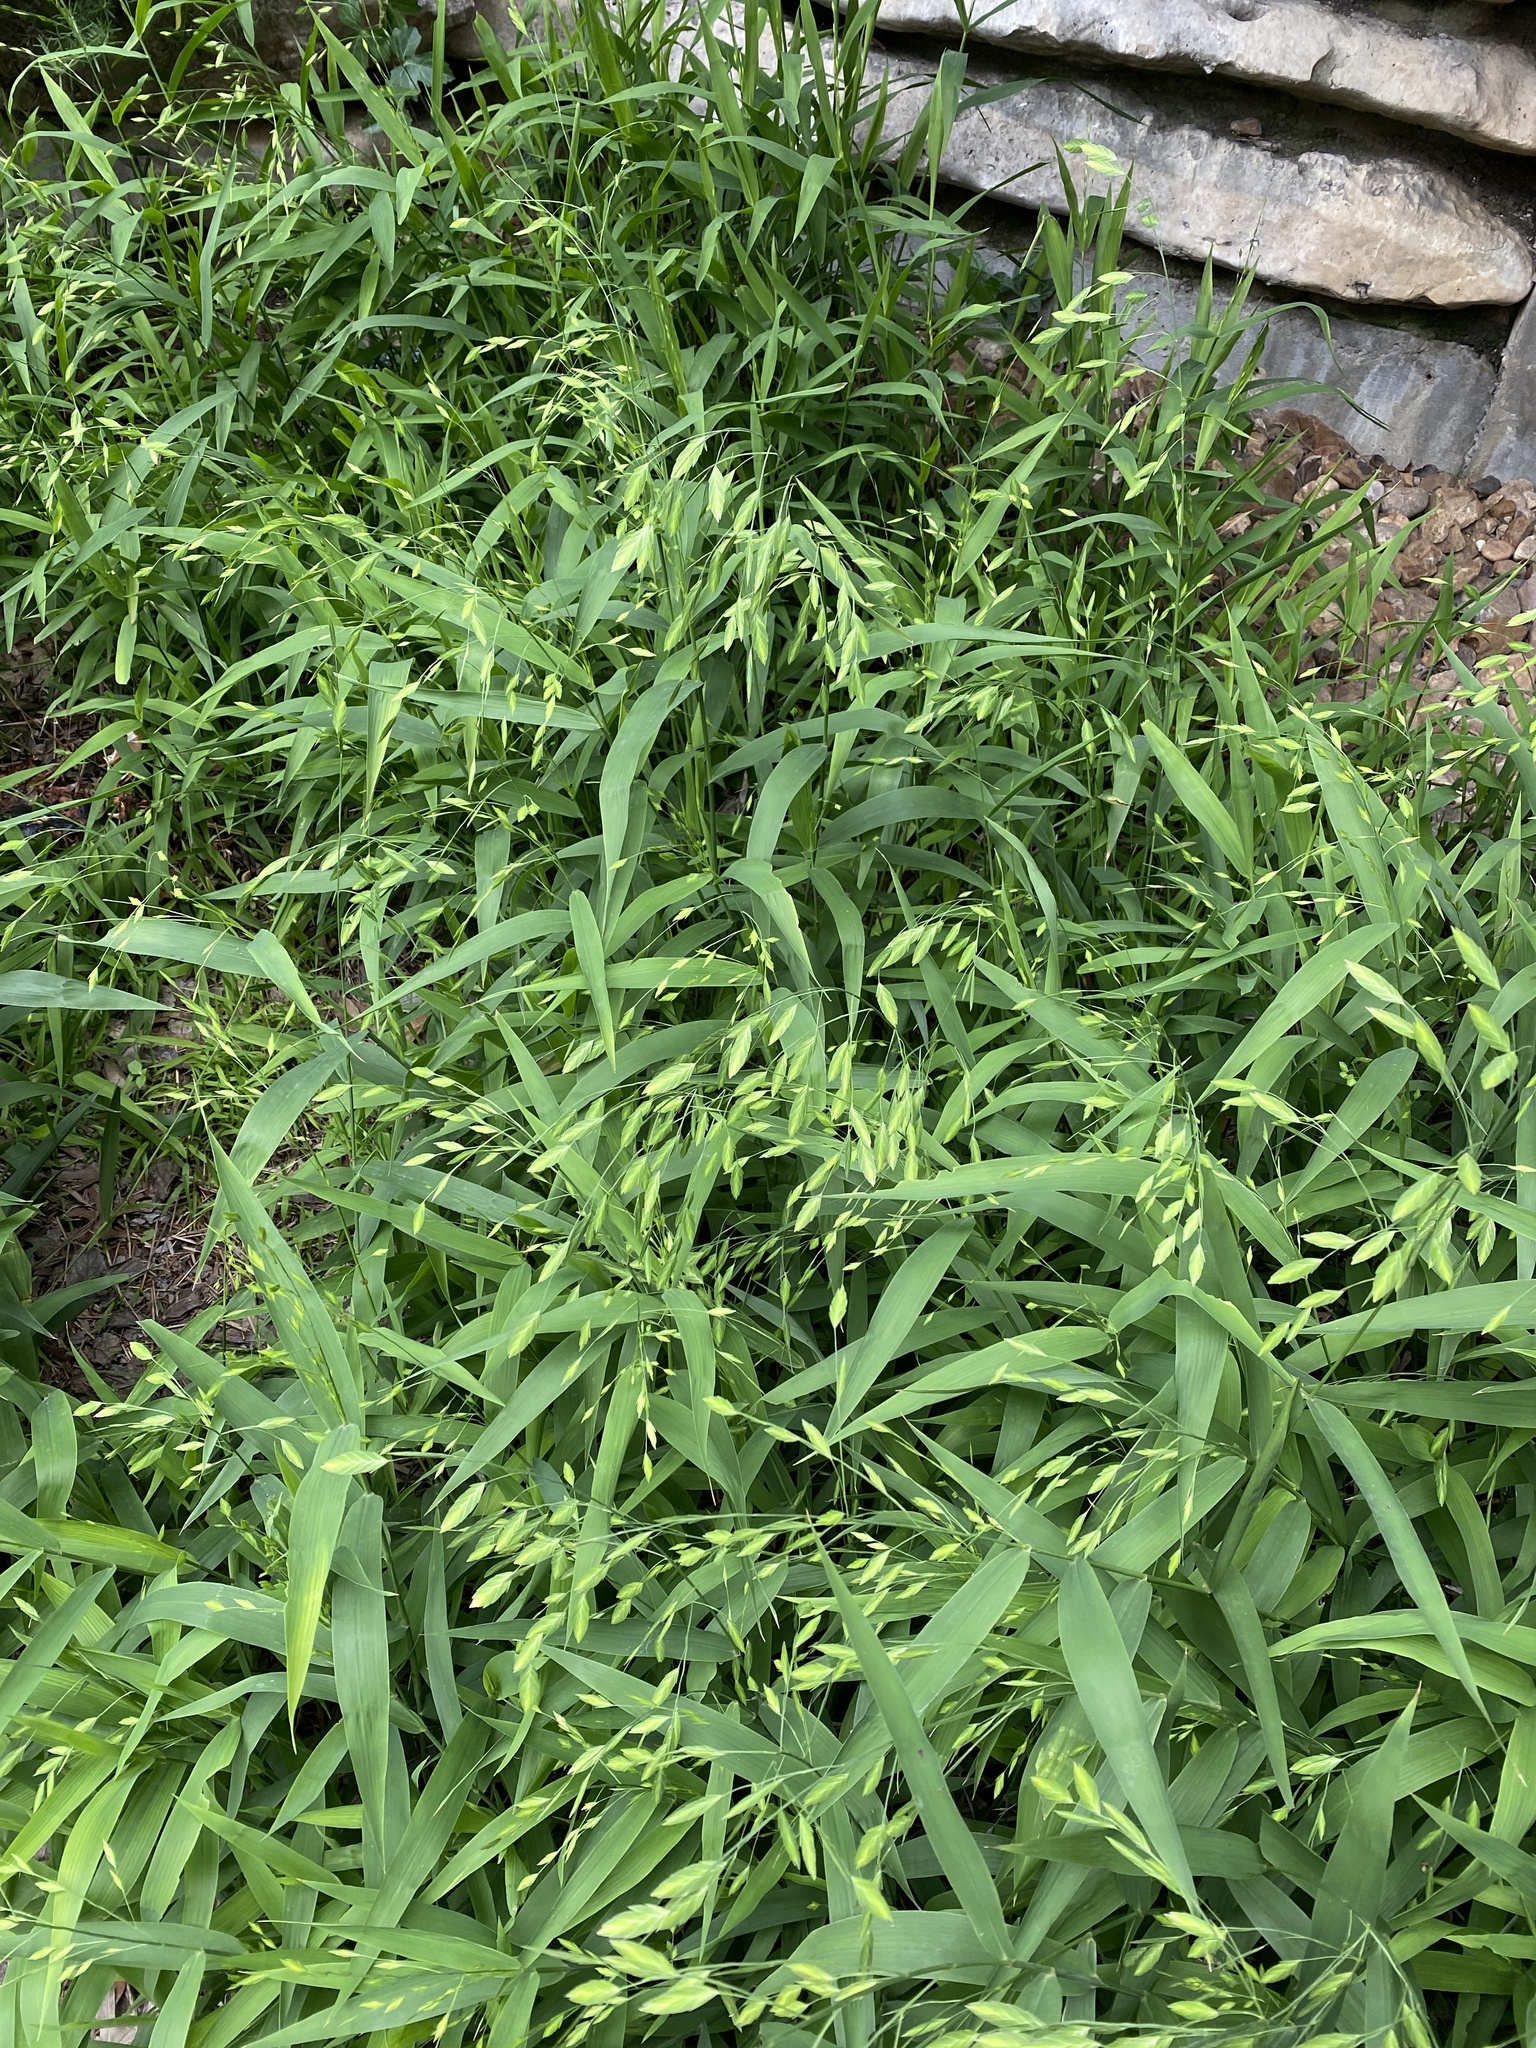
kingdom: Plantae
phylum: Tracheophyta
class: Liliopsida
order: Poales
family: Poaceae
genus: Chasmanthium
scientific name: Chasmanthium latifolium
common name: Broad-leaved chasmanthium
